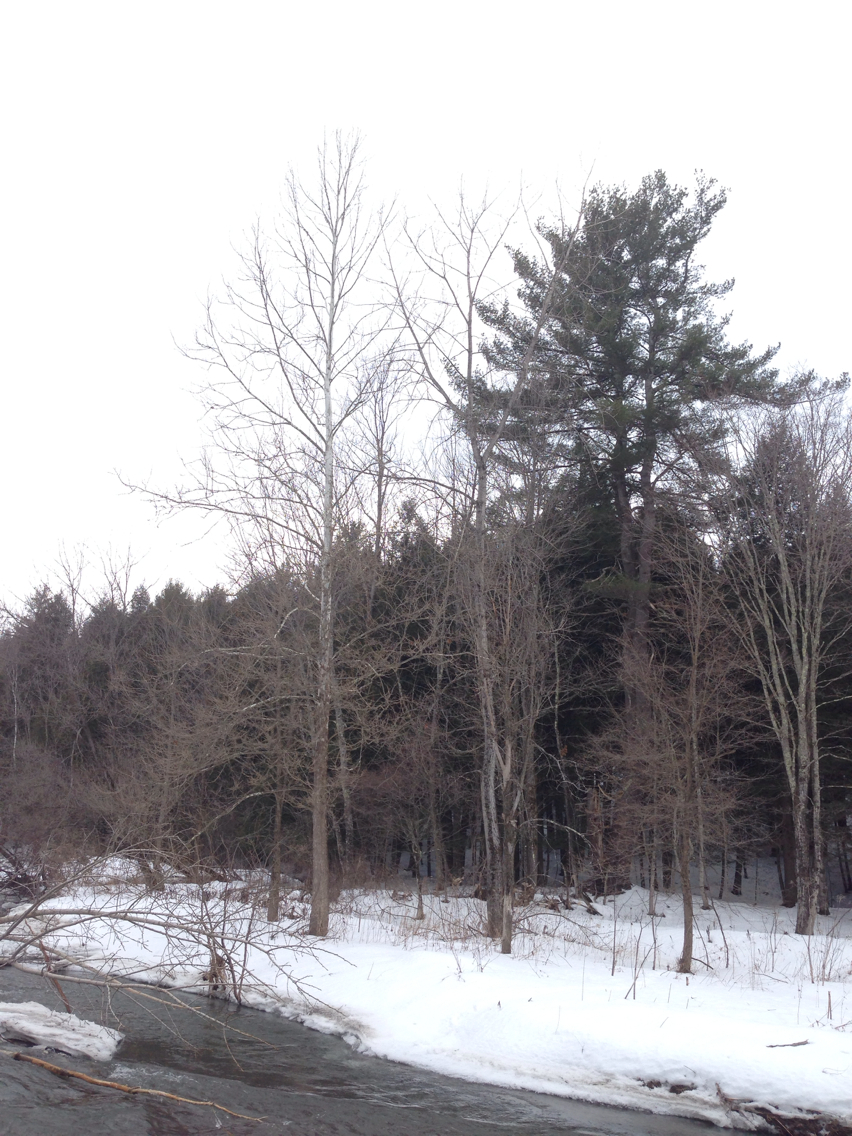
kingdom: Plantae
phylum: Tracheophyta
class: Magnoliopsida
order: Proteales
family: Platanaceae
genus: Platanus
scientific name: Platanus occidentalis
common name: American sycamore
